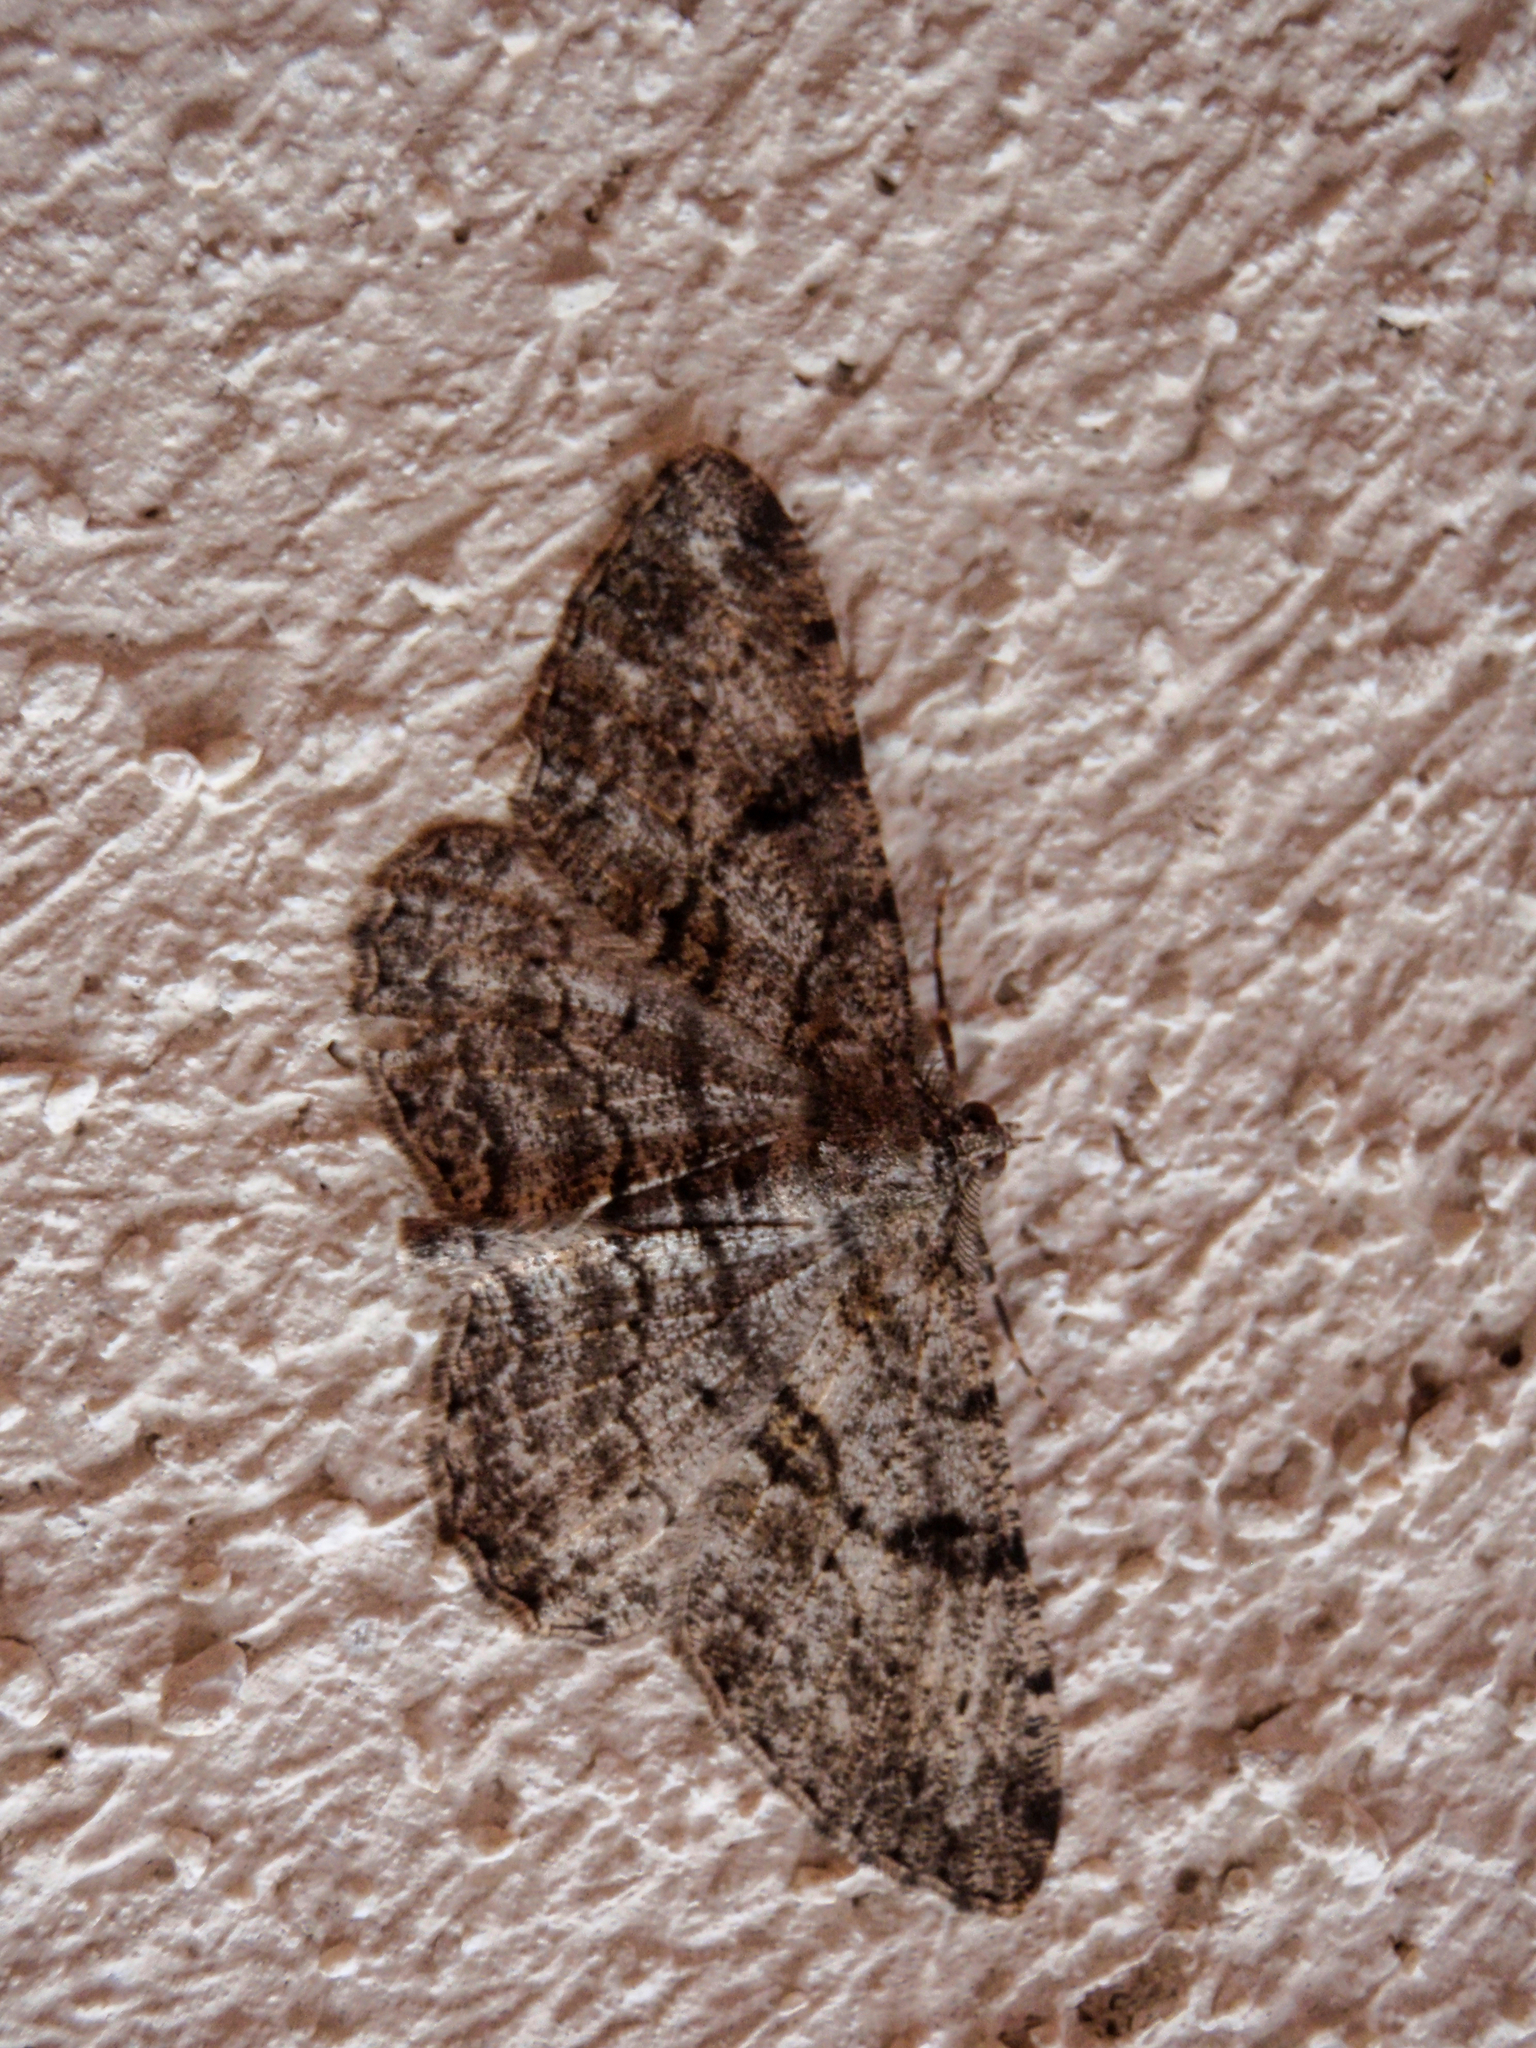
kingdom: Animalia
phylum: Arthropoda
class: Insecta
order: Lepidoptera
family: Geometridae
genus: Peribatodes
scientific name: Peribatodes rhomboidaria
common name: Willow beauty
